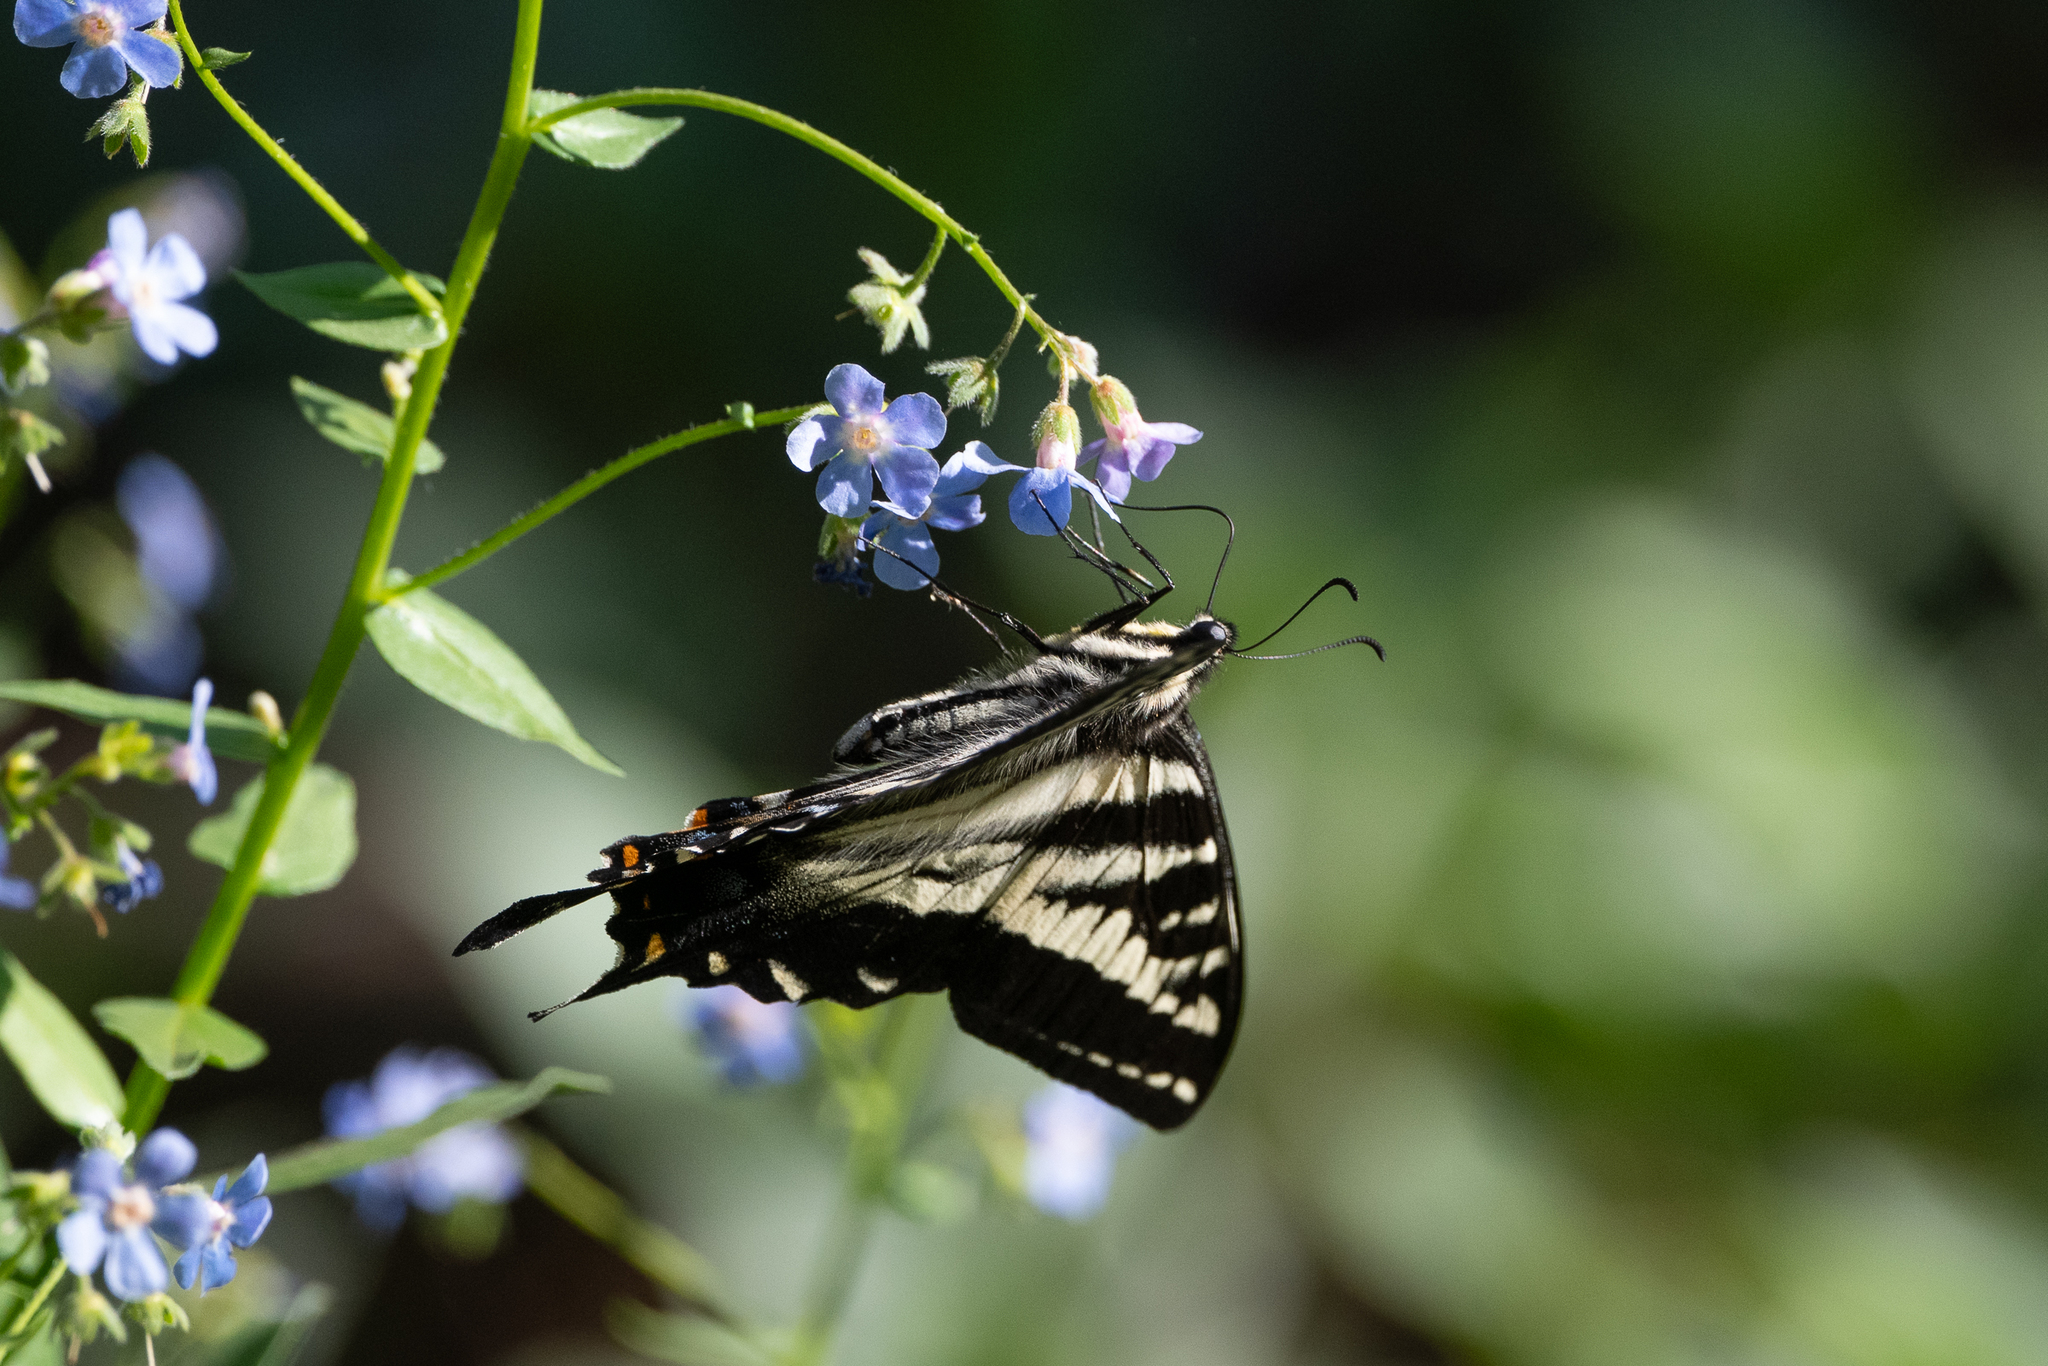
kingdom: Animalia
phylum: Arthropoda
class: Insecta
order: Lepidoptera
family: Papilionidae
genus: Papilio
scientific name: Papilio eurymedon
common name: Pale tiger swallowtail
